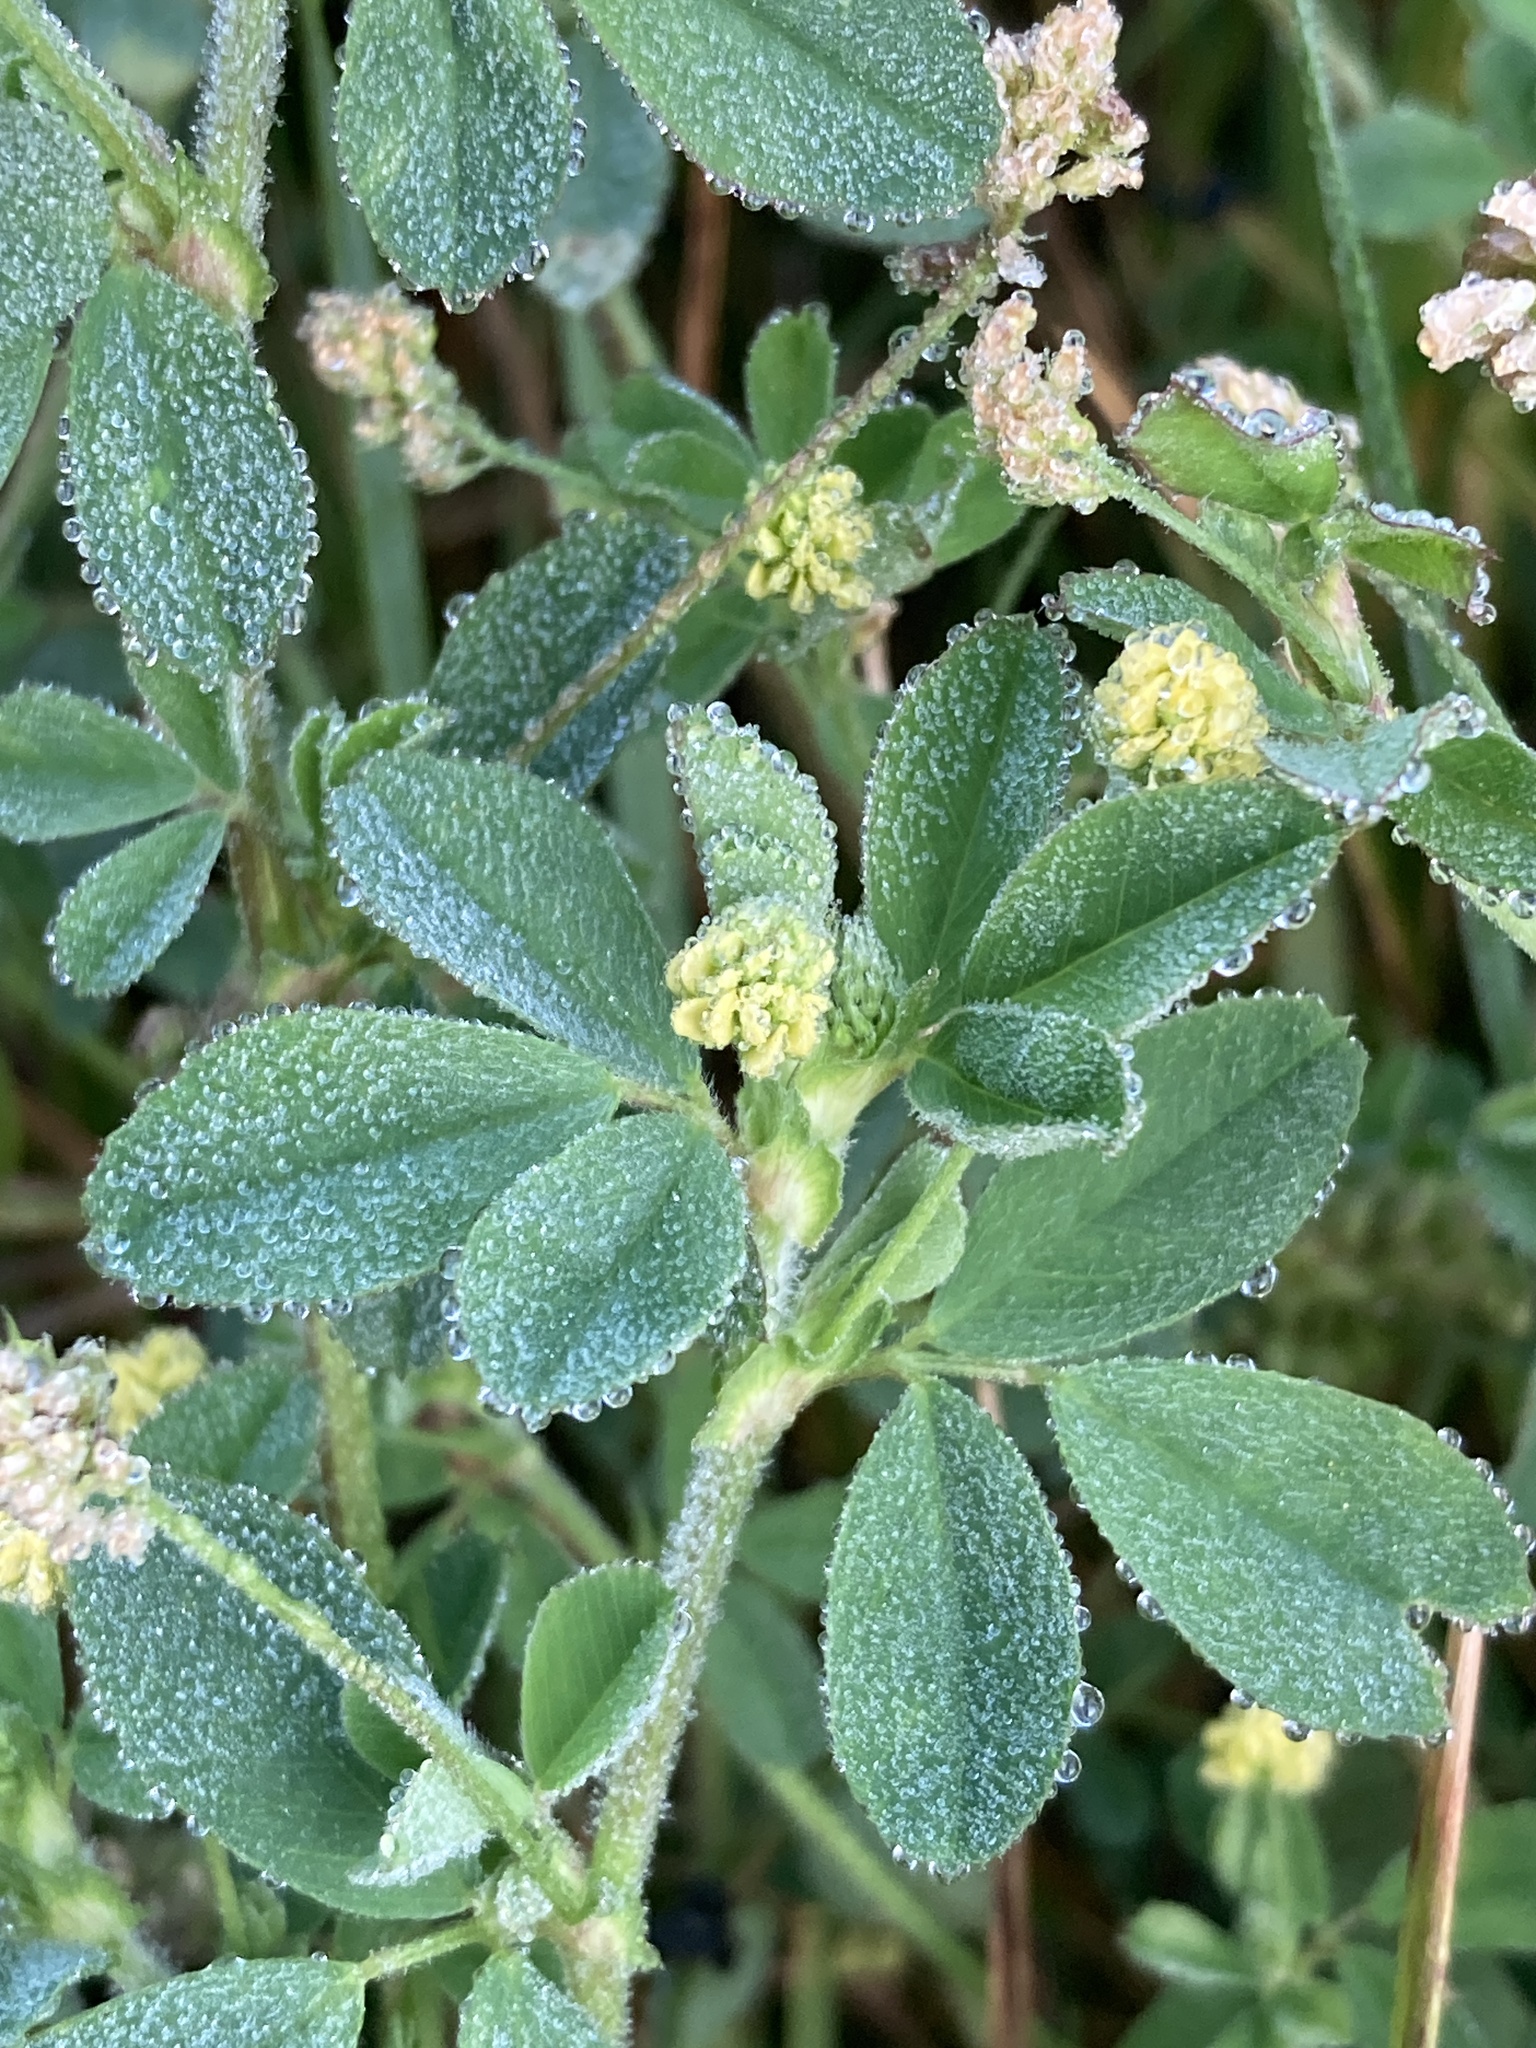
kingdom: Plantae
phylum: Tracheophyta
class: Magnoliopsida
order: Fabales
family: Fabaceae
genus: Medicago
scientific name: Medicago lupulina
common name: Black medick
